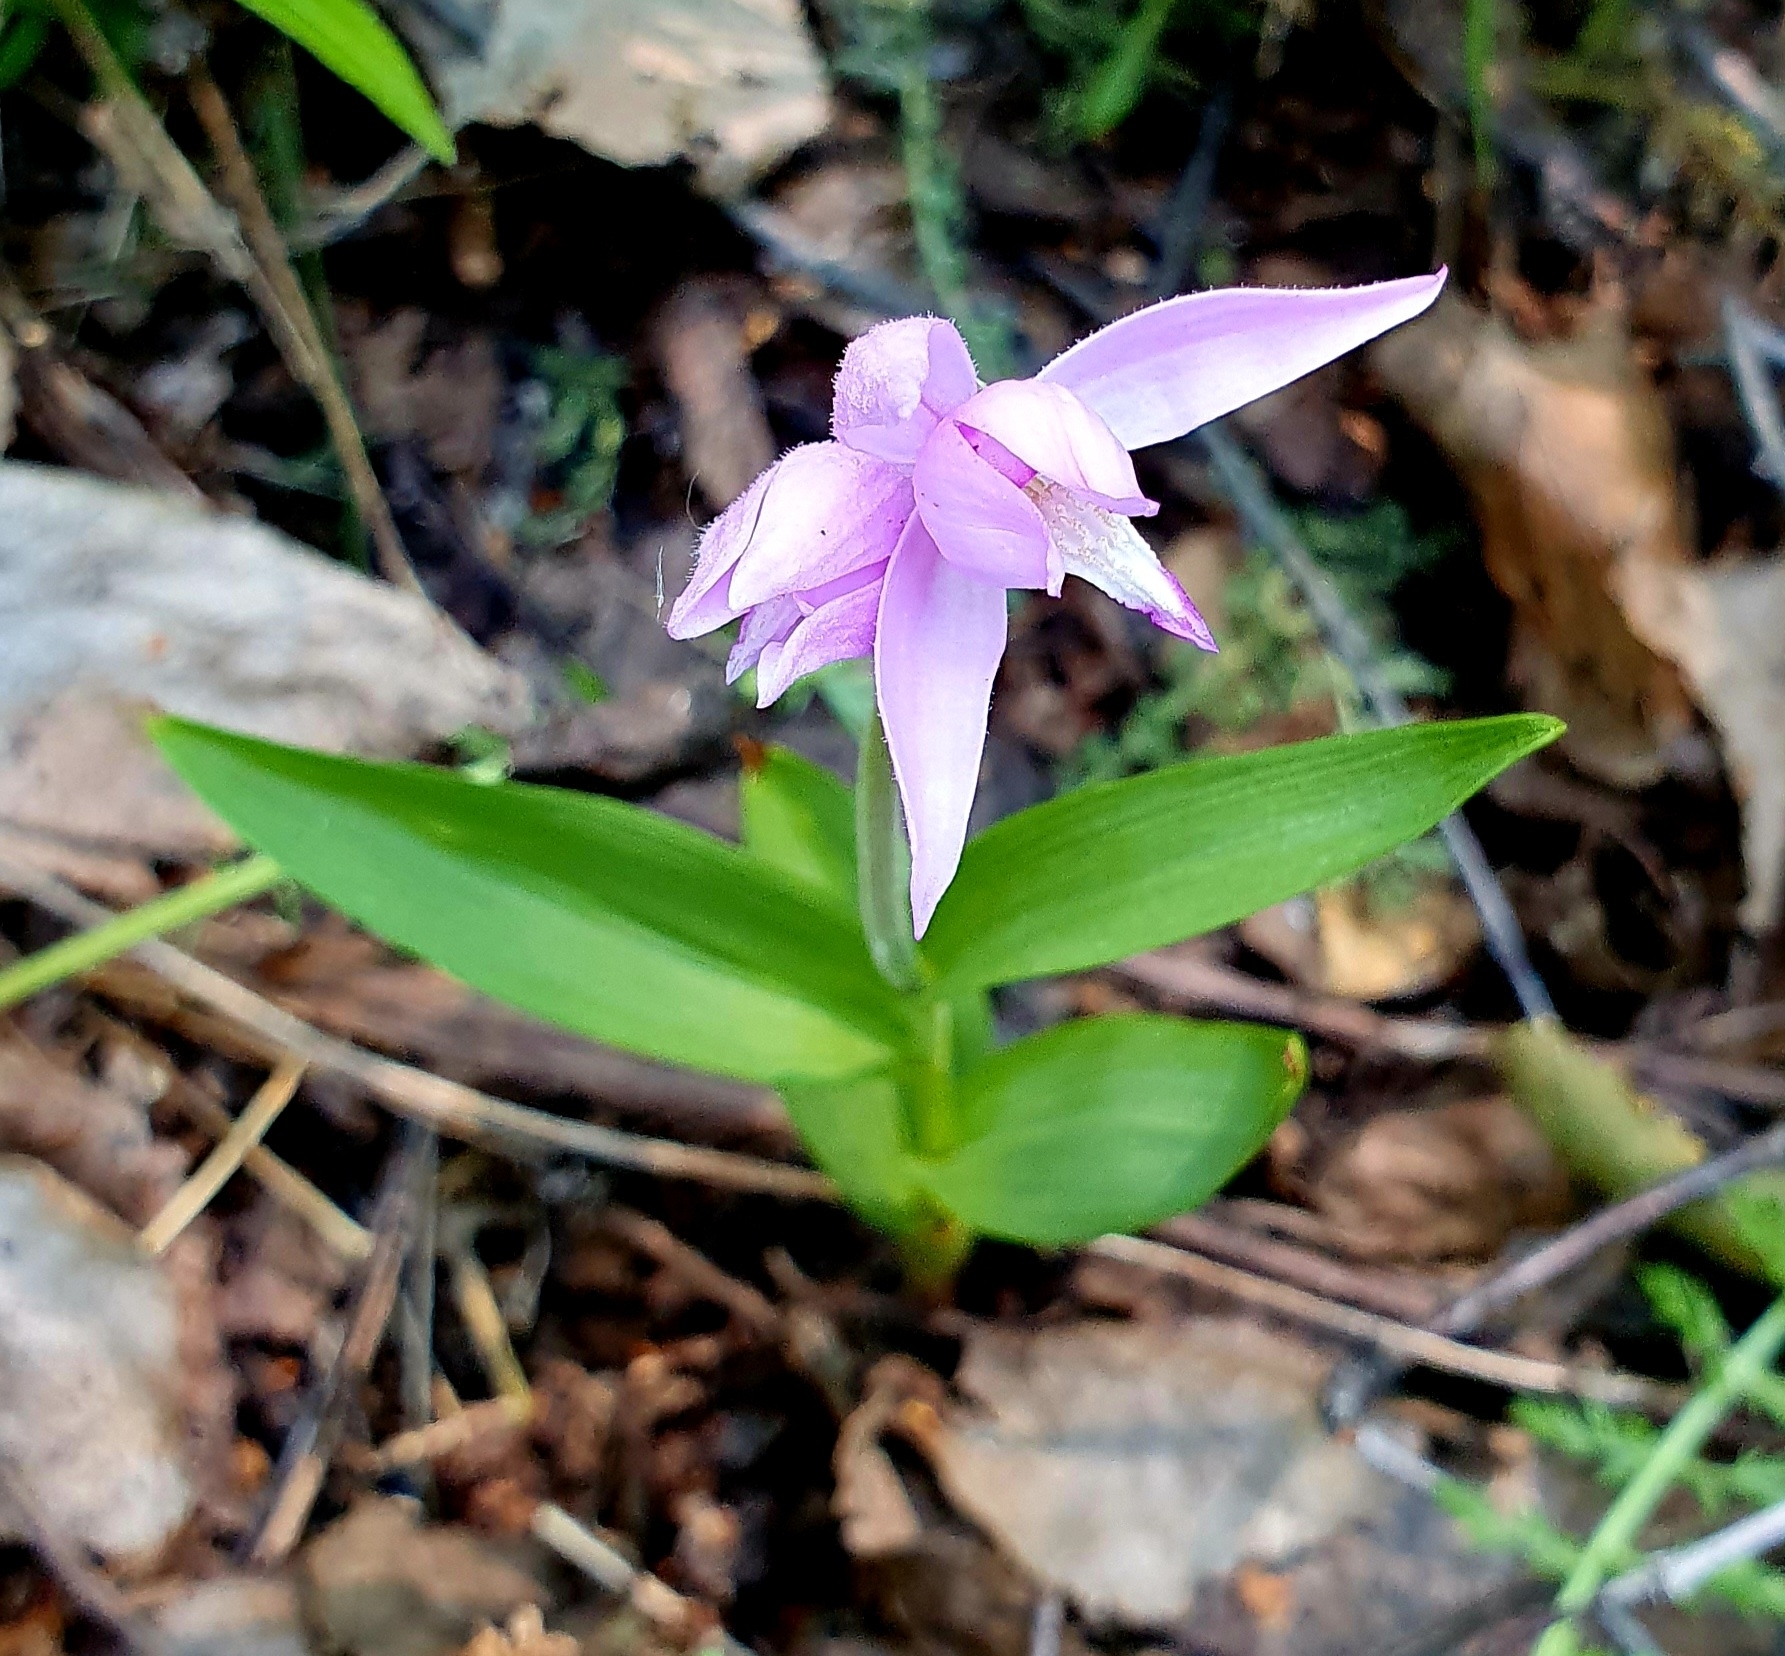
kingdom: Plantae
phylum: Tracheophyta
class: Liliopsida
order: Asparagales
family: Orchidaceae
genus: Cephalanthera
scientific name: Cephalanthera rubra
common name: Red helleborine
